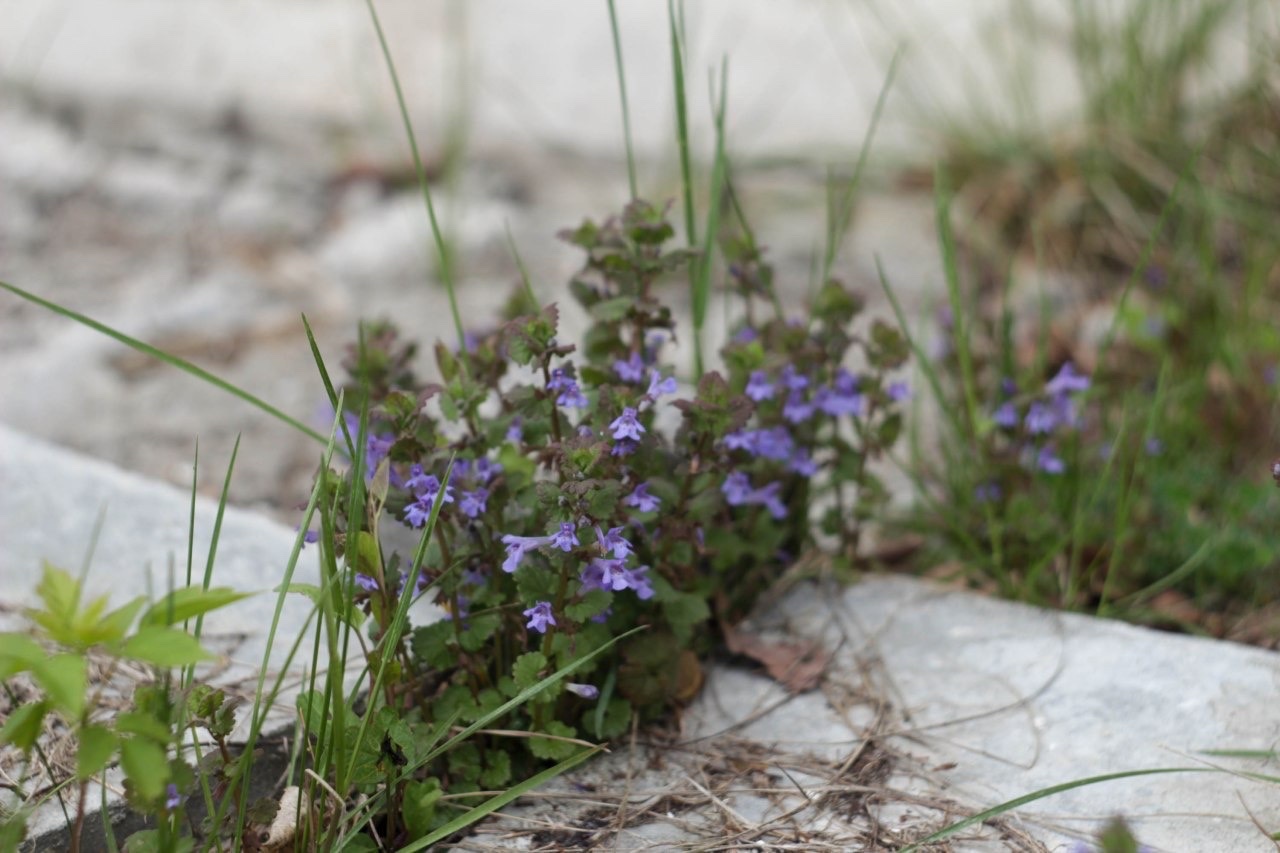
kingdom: Plantae
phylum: Tracheophyta
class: Magnoliopsida
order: Lamiales
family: Lamiaceae
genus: Glechoma
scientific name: Glechoma hederacea
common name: Ground ivy
